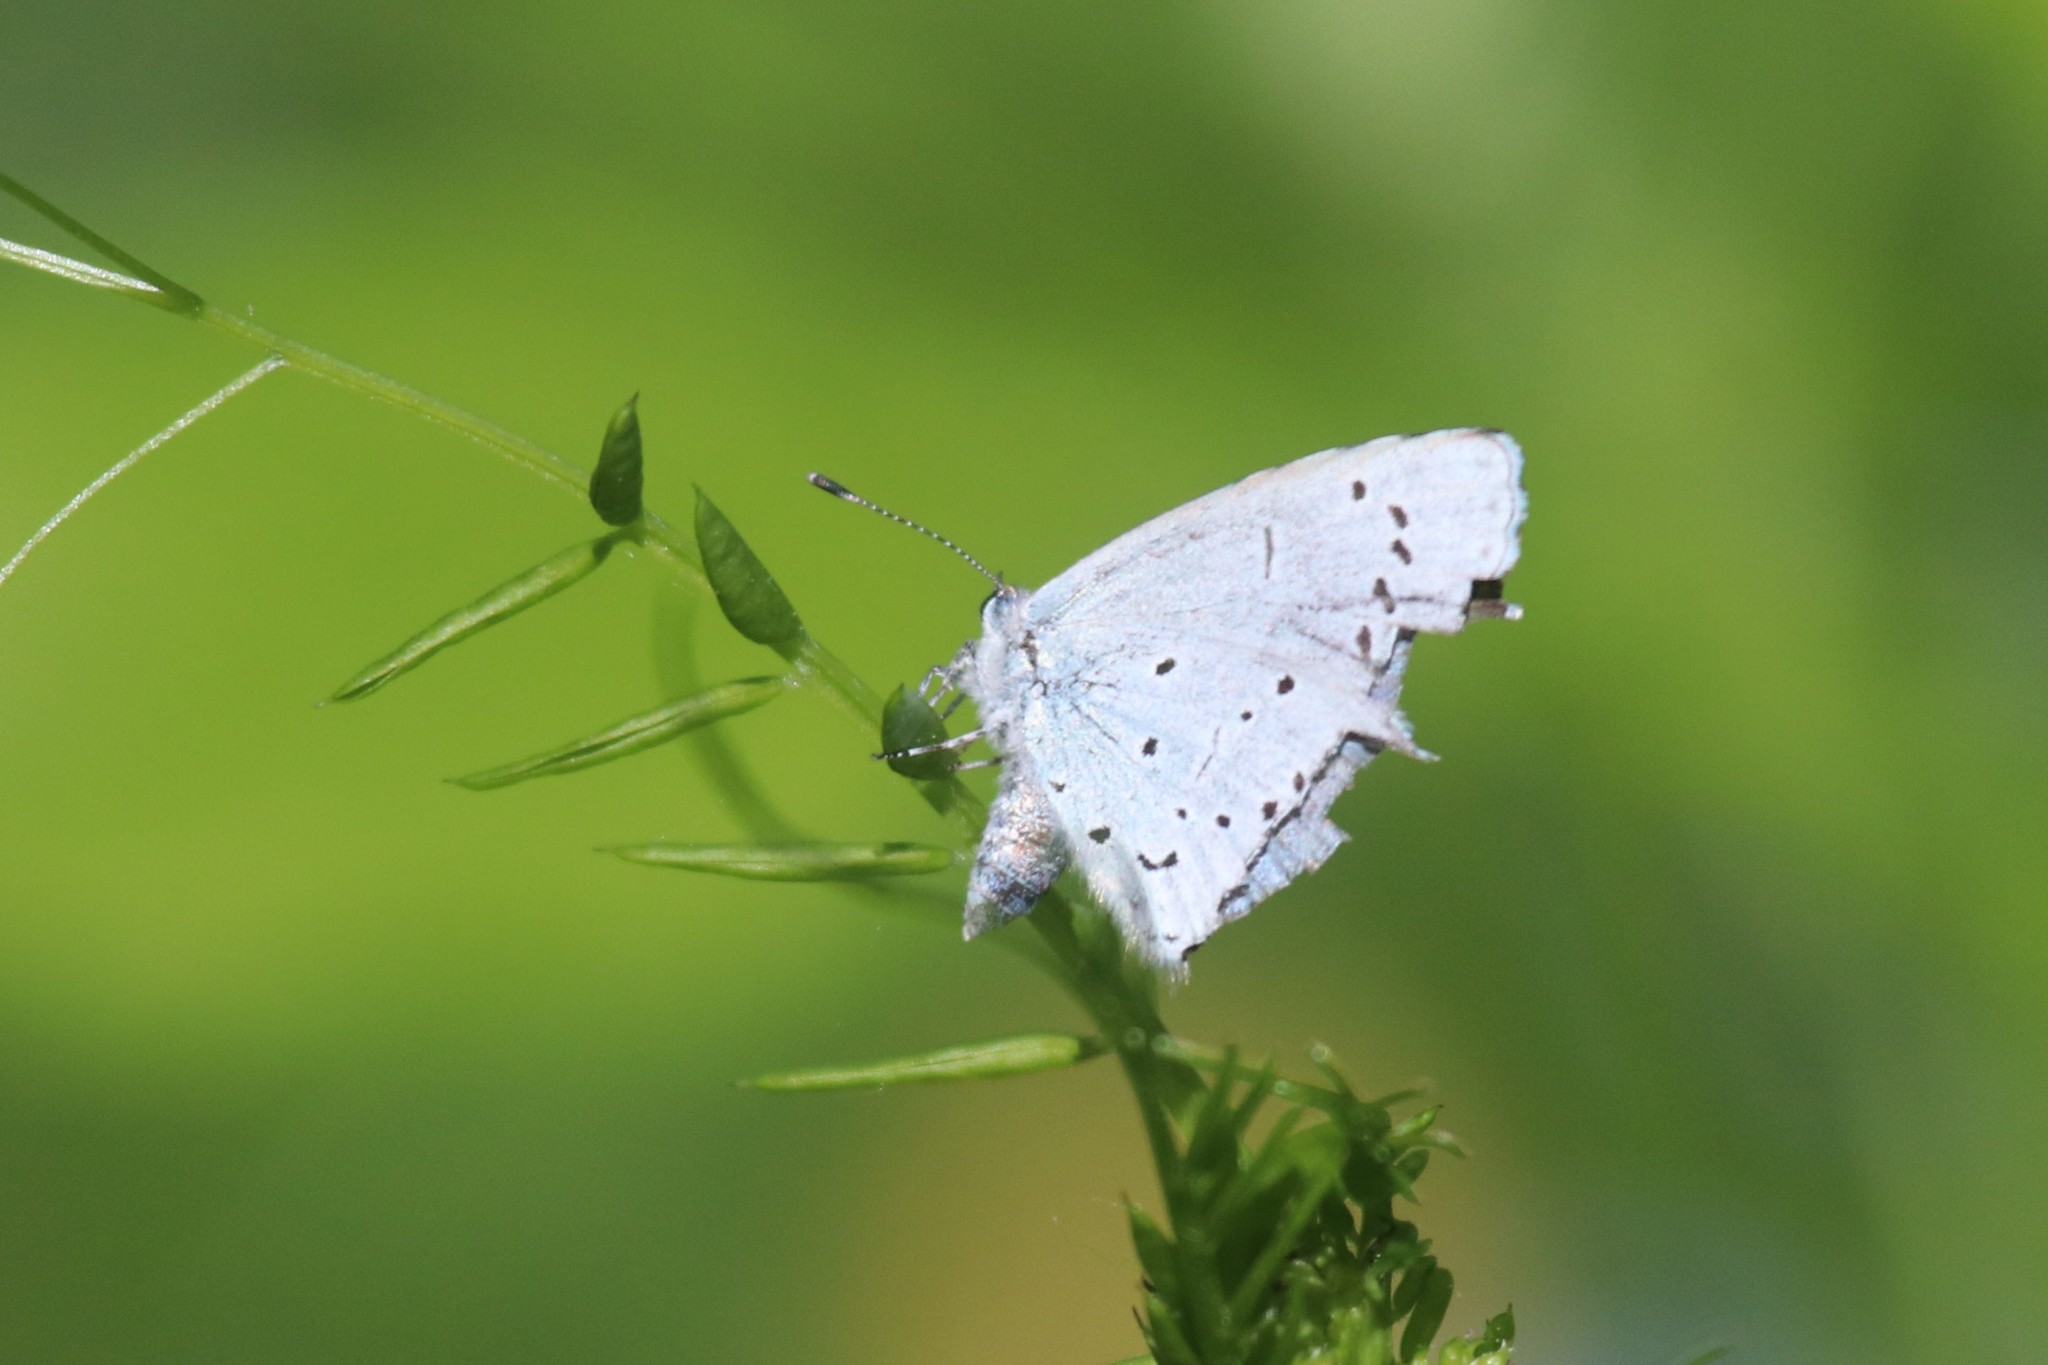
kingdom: Animalia
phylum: Arthropoda
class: Insecta
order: Lepidoptera
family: Lycaenidae
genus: Celastrina
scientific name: Celastrina argiolus
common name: Holly blue
